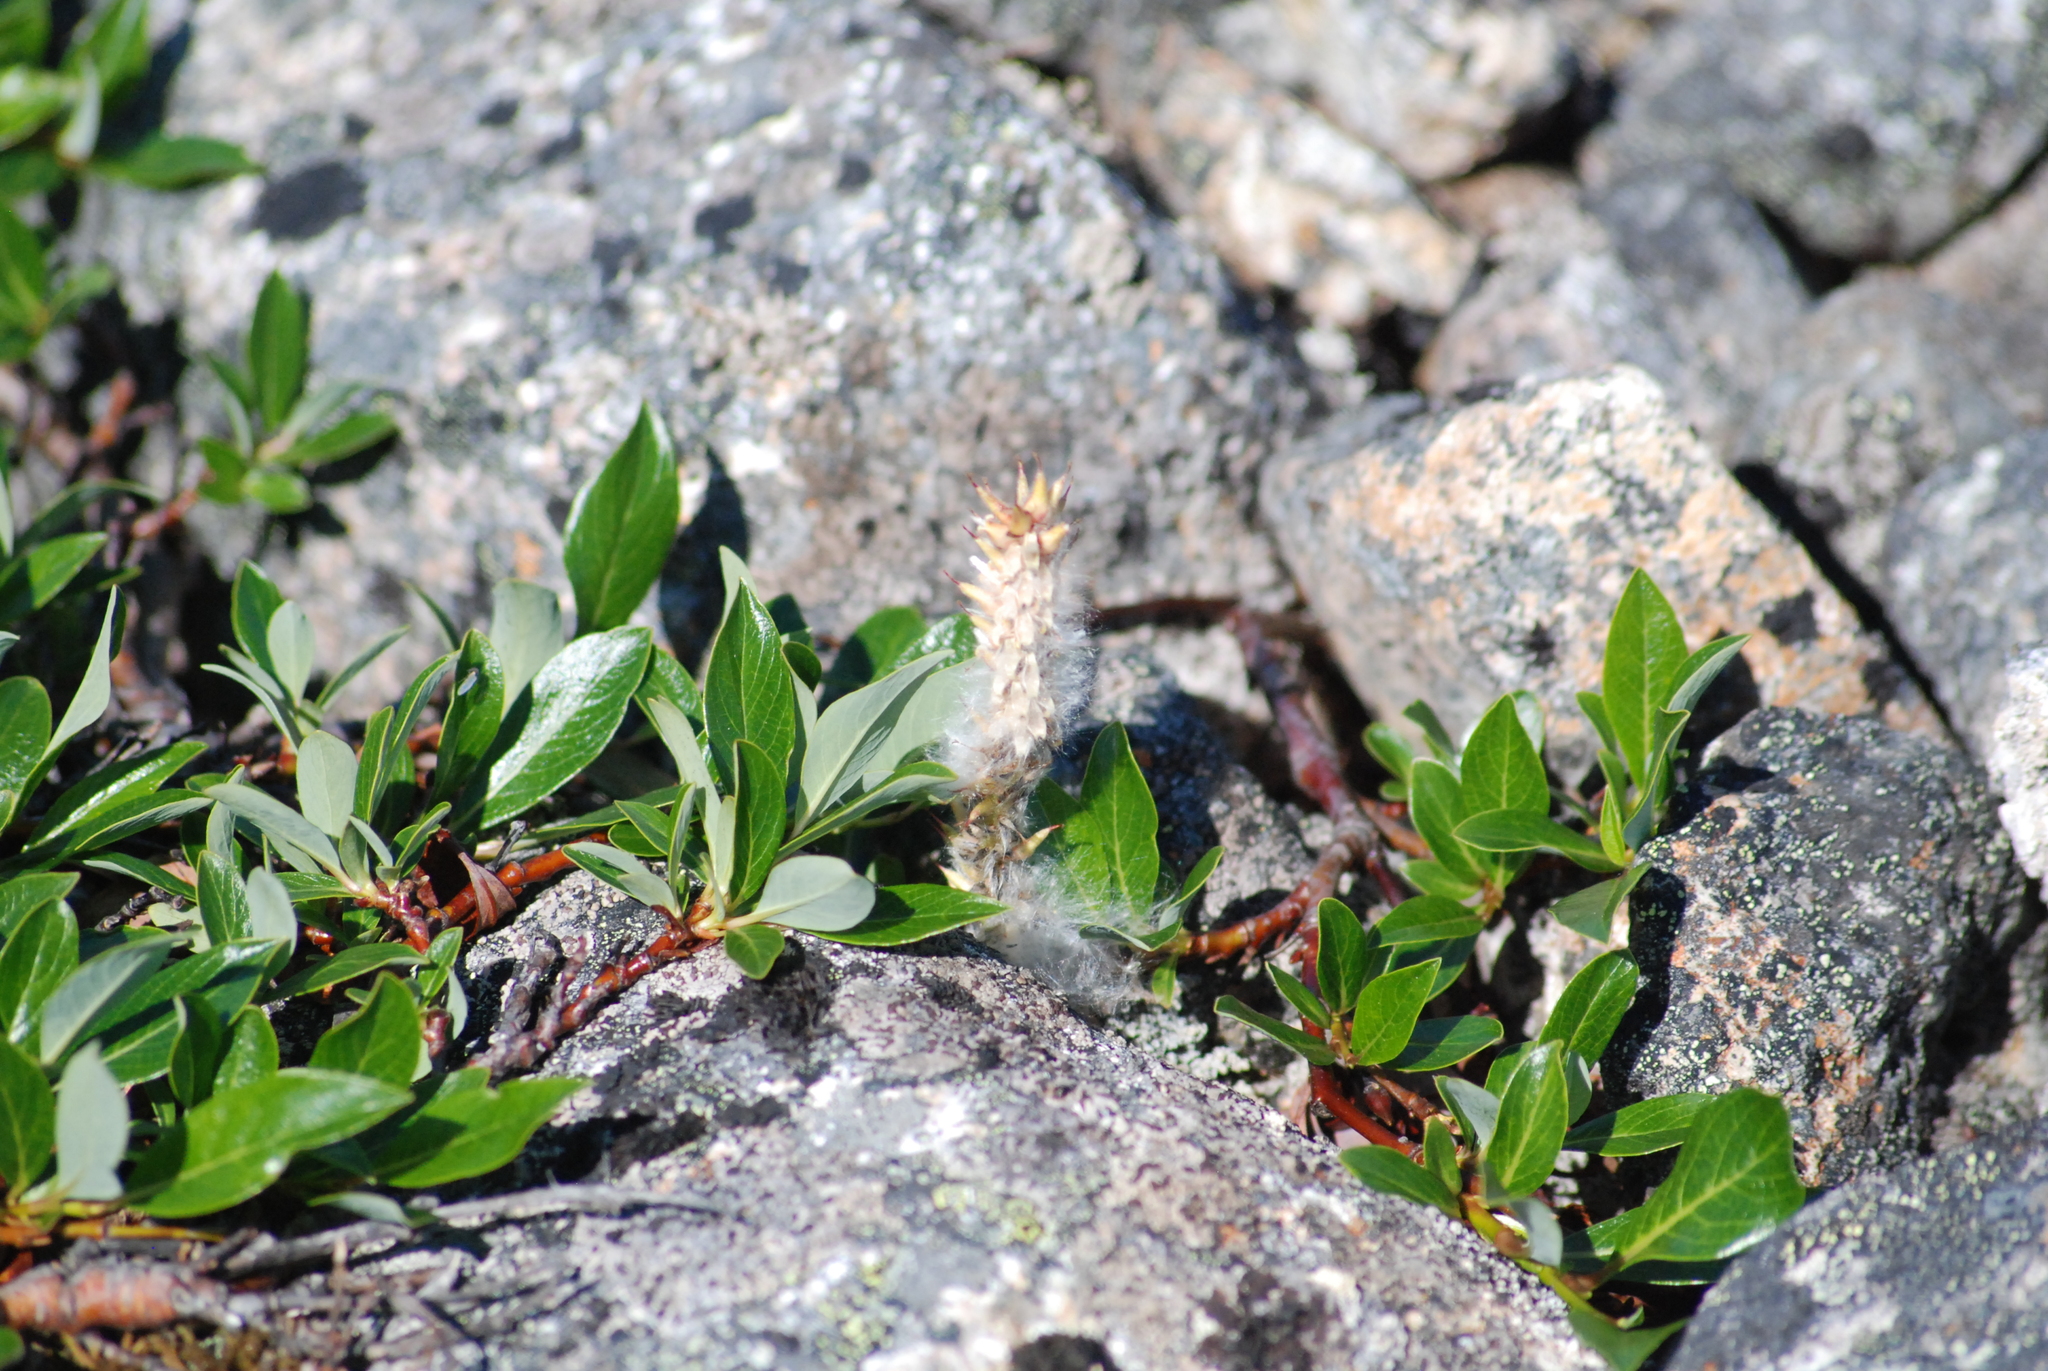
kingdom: Plantae
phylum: Tracheophyta
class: Magnoliopsida
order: Malpighiales
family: Salicaceae
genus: Salix
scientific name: Salix pulchra
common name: Diamond-leaved willow
